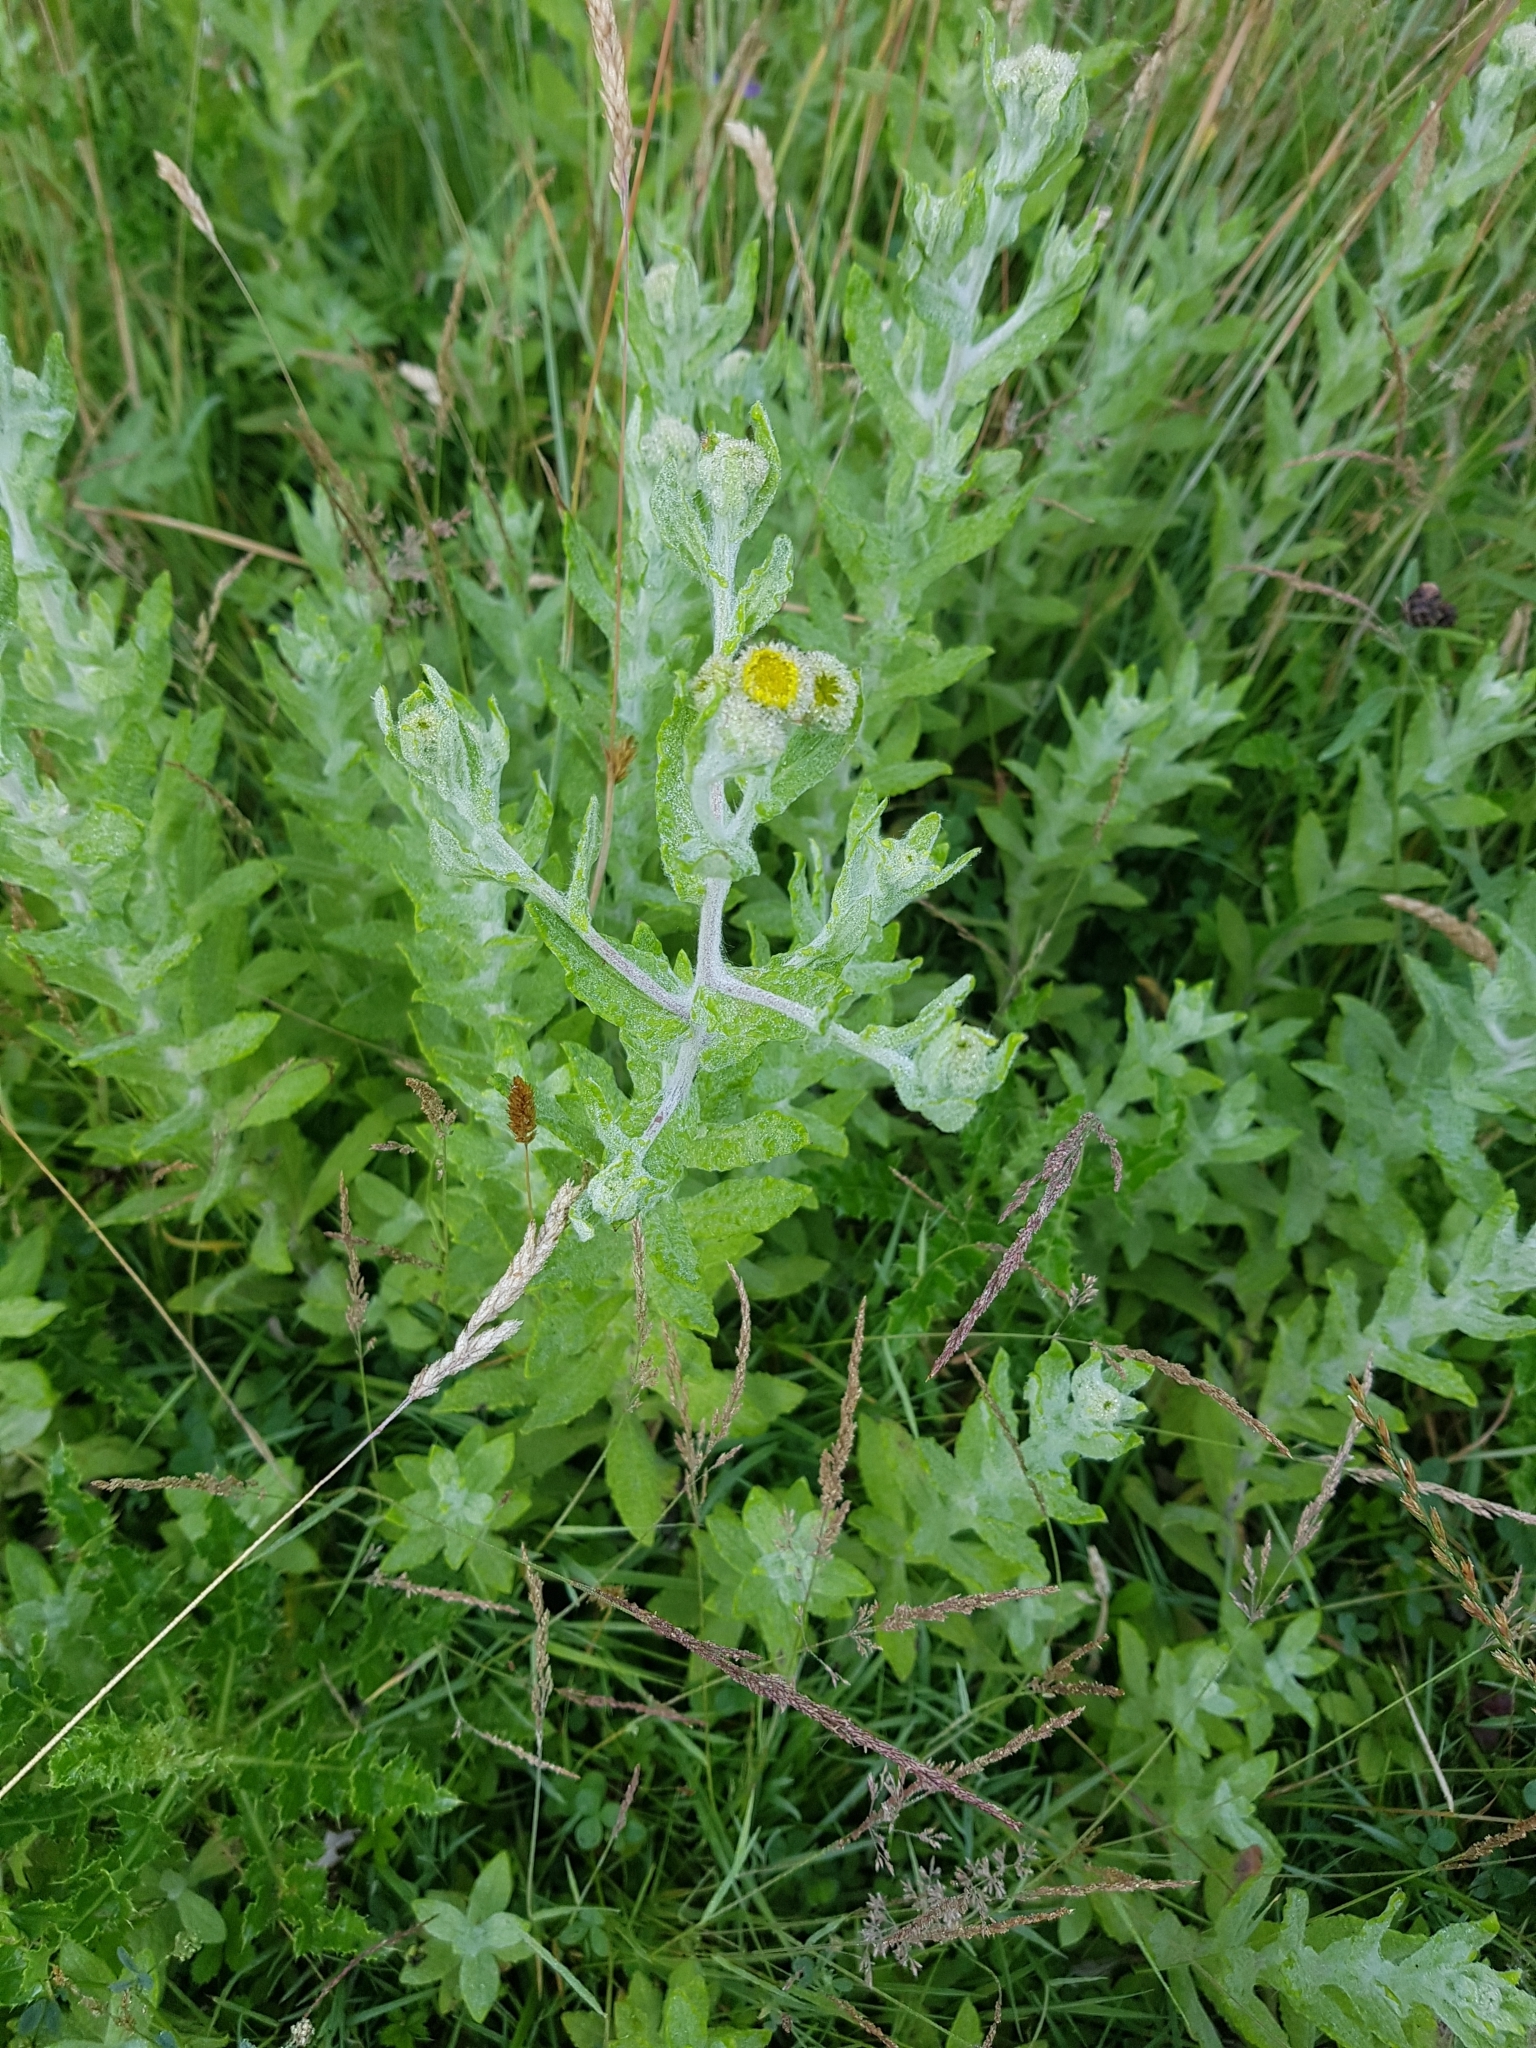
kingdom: Plantae
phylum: Tracheophyta
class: Magnoliopsida
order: Asterales
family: Asteraceae
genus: Pulicaria
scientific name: Pulicaria dysenterica
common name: Common fleabane
